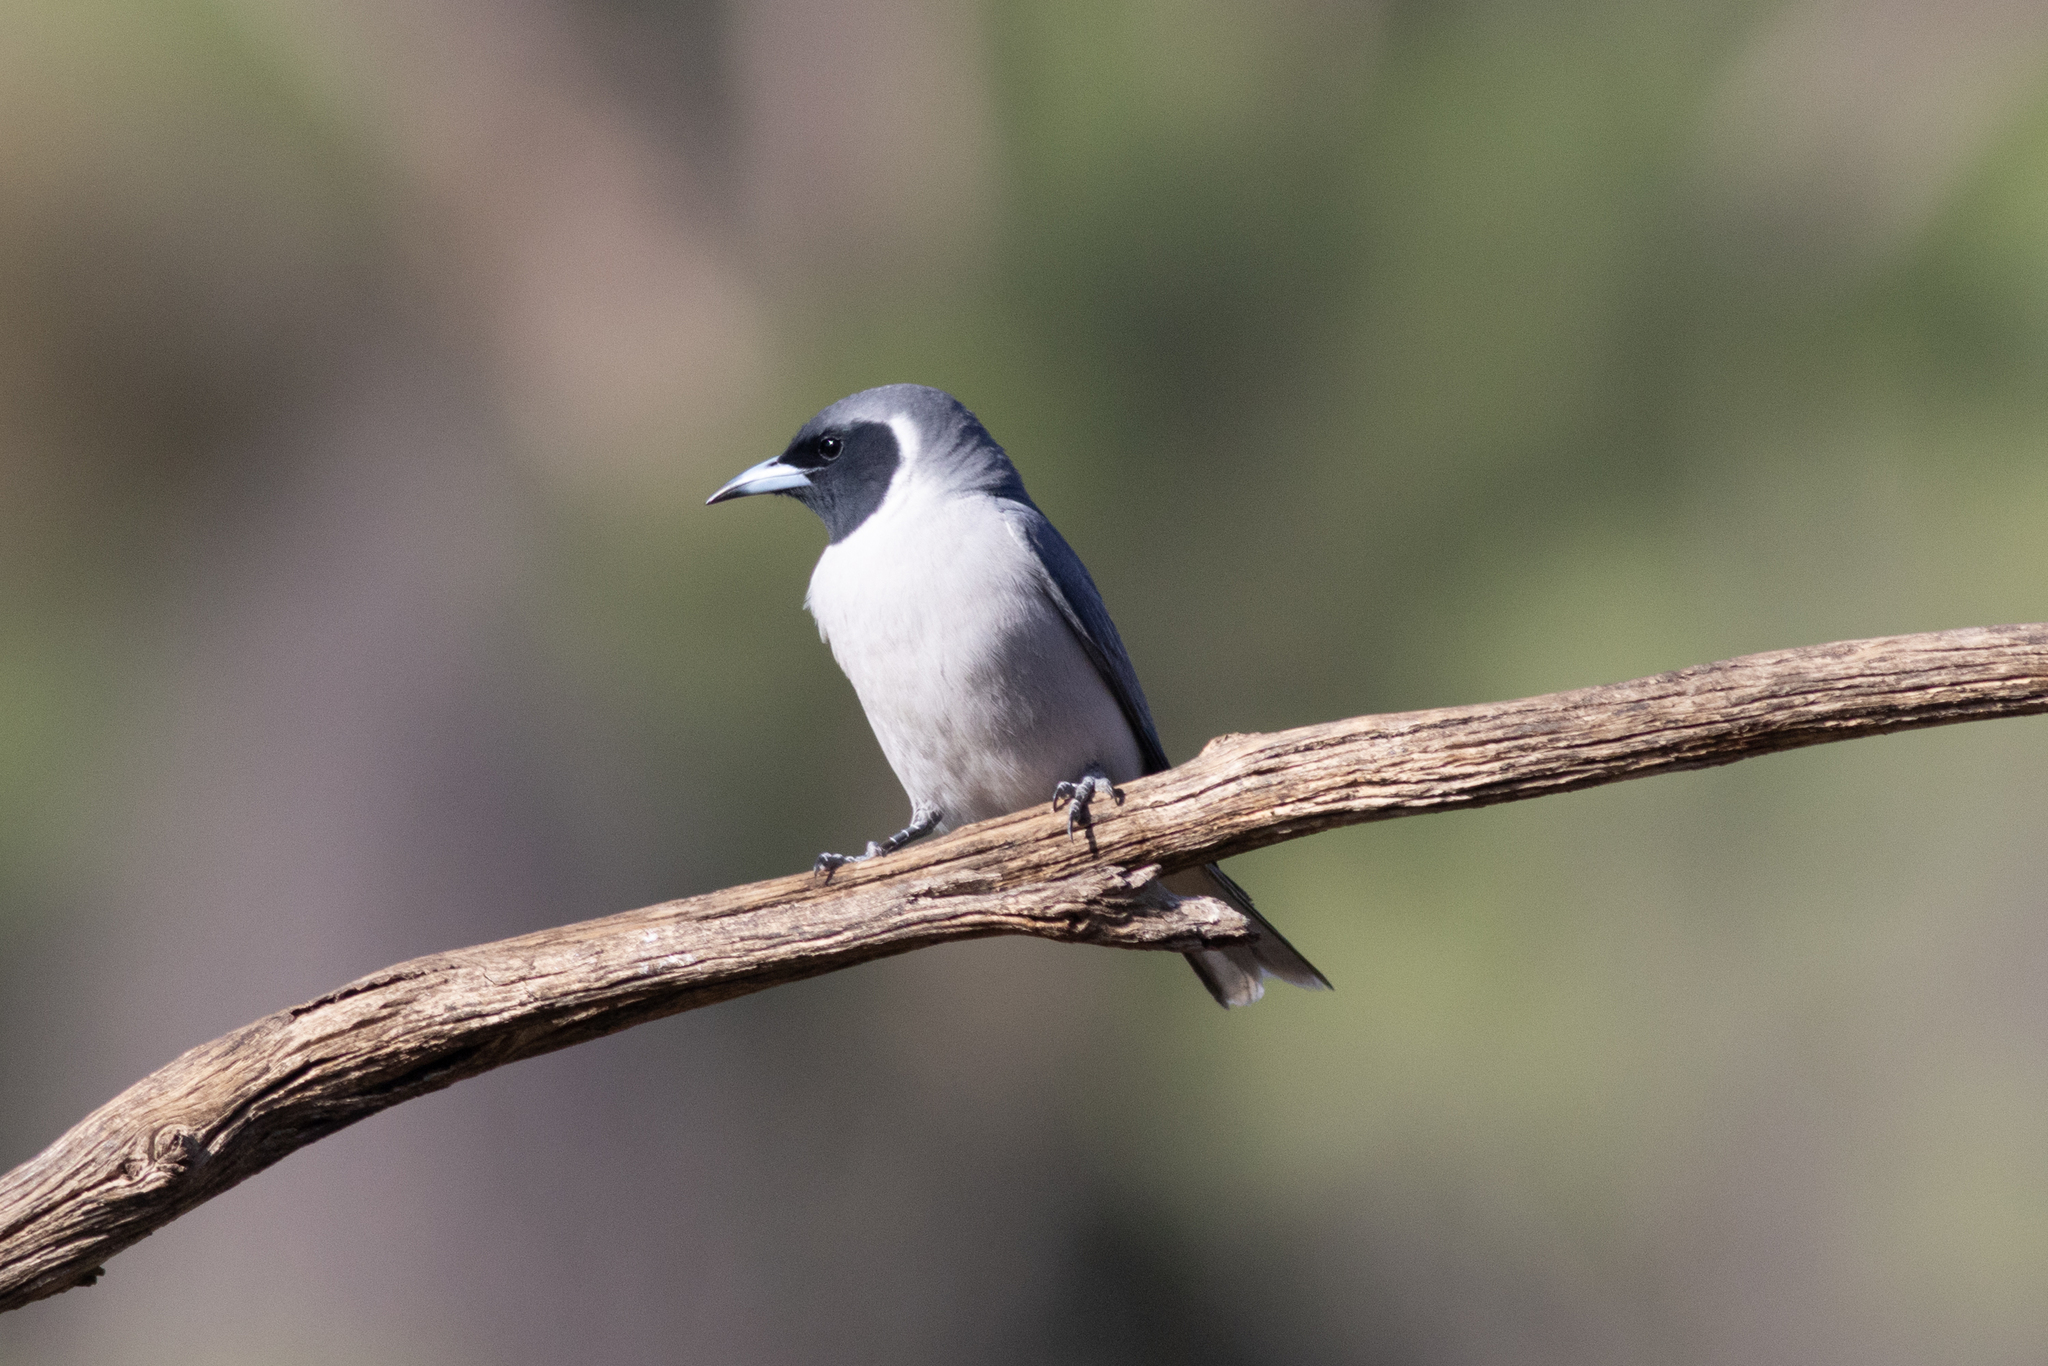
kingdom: Animalia
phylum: Chordata
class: Aves
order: Passeriformes
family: Artamidae
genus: Artamus
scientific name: Artamus personatus
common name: Masked woodswallow
